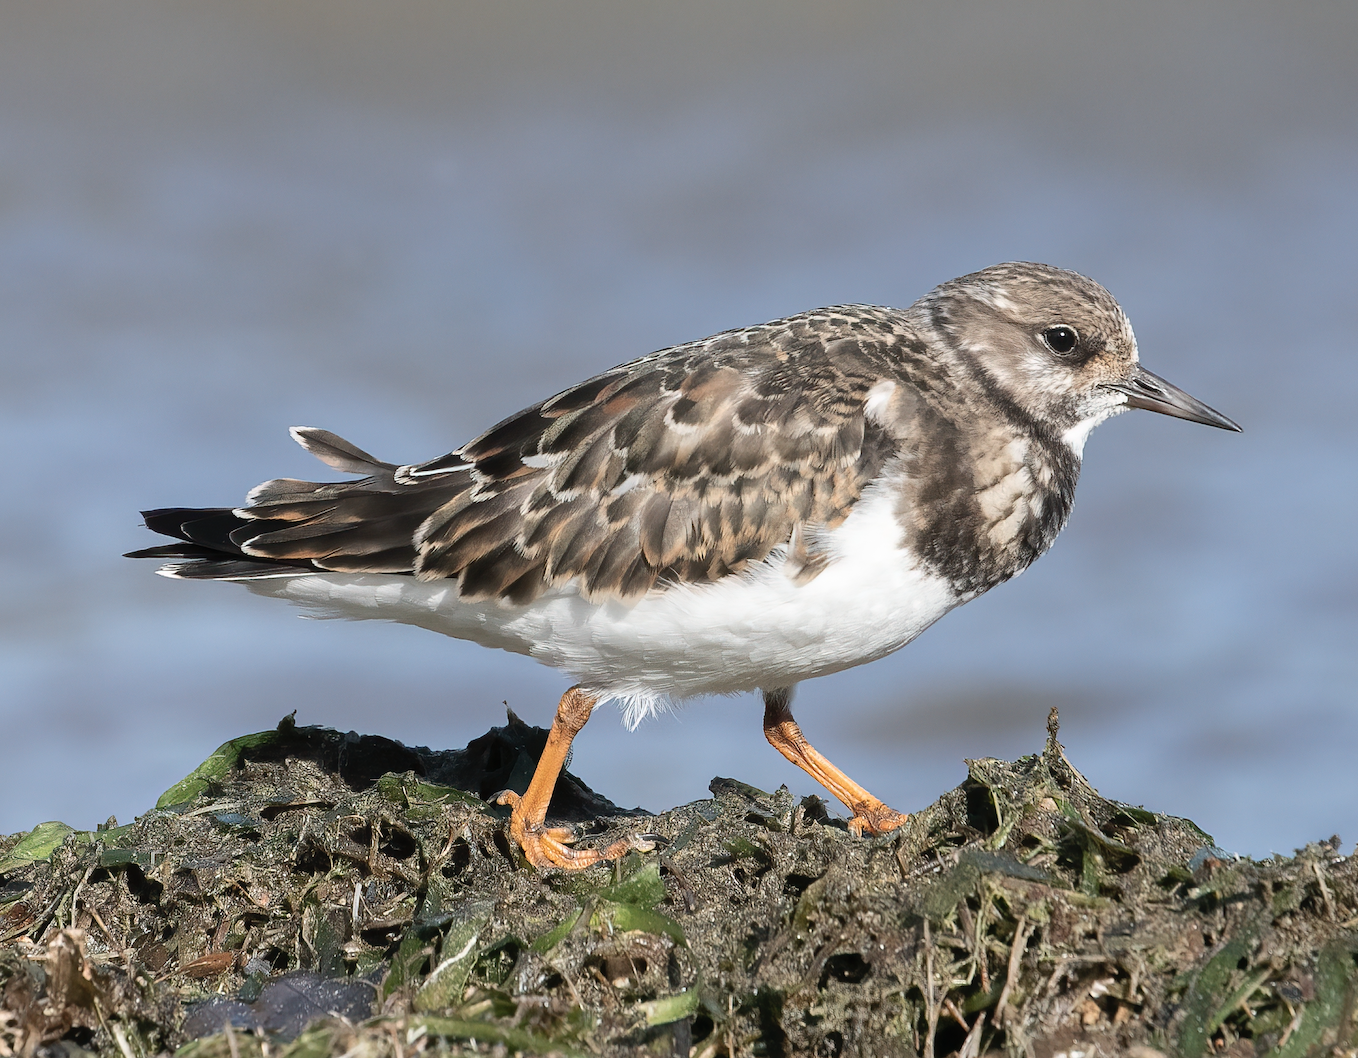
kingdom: Animalia
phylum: Chordata
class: Aves
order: Charadriiformes
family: Scolopacidae
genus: Arenaria
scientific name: Arenaria interpres
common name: Ruddy turnstone
